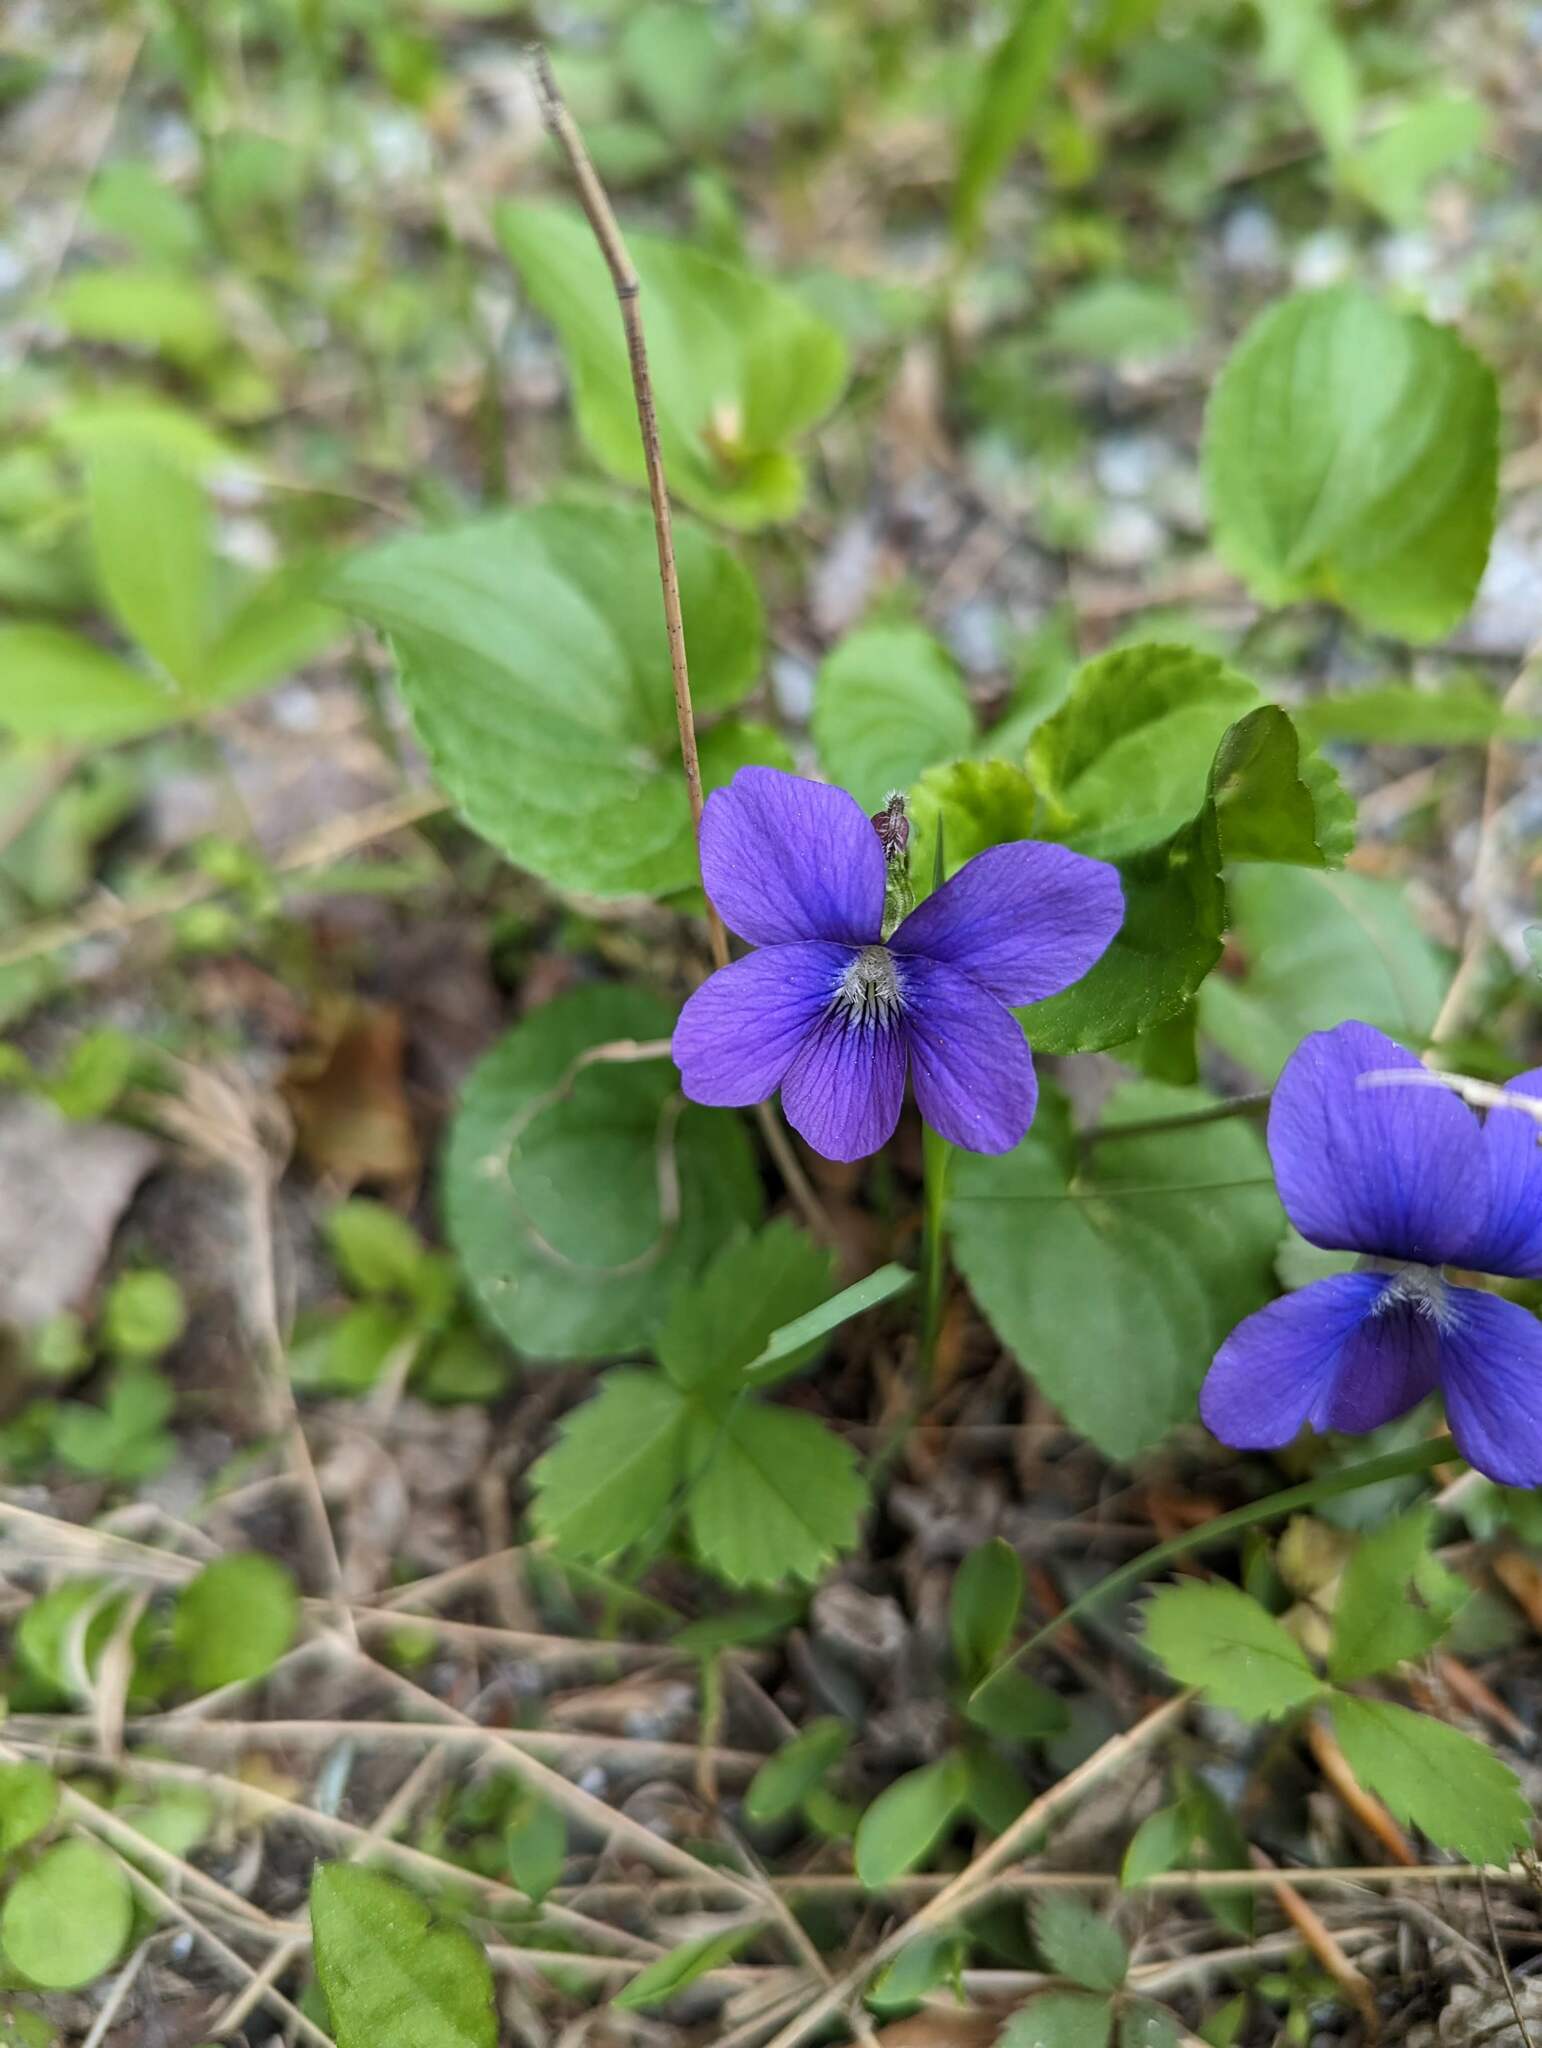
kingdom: Plantae
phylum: Tracheophyta
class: Magnoliopsida
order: Malpighiales
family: Violaceae
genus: Viola
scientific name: Viola sororia
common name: Dooryard violet
